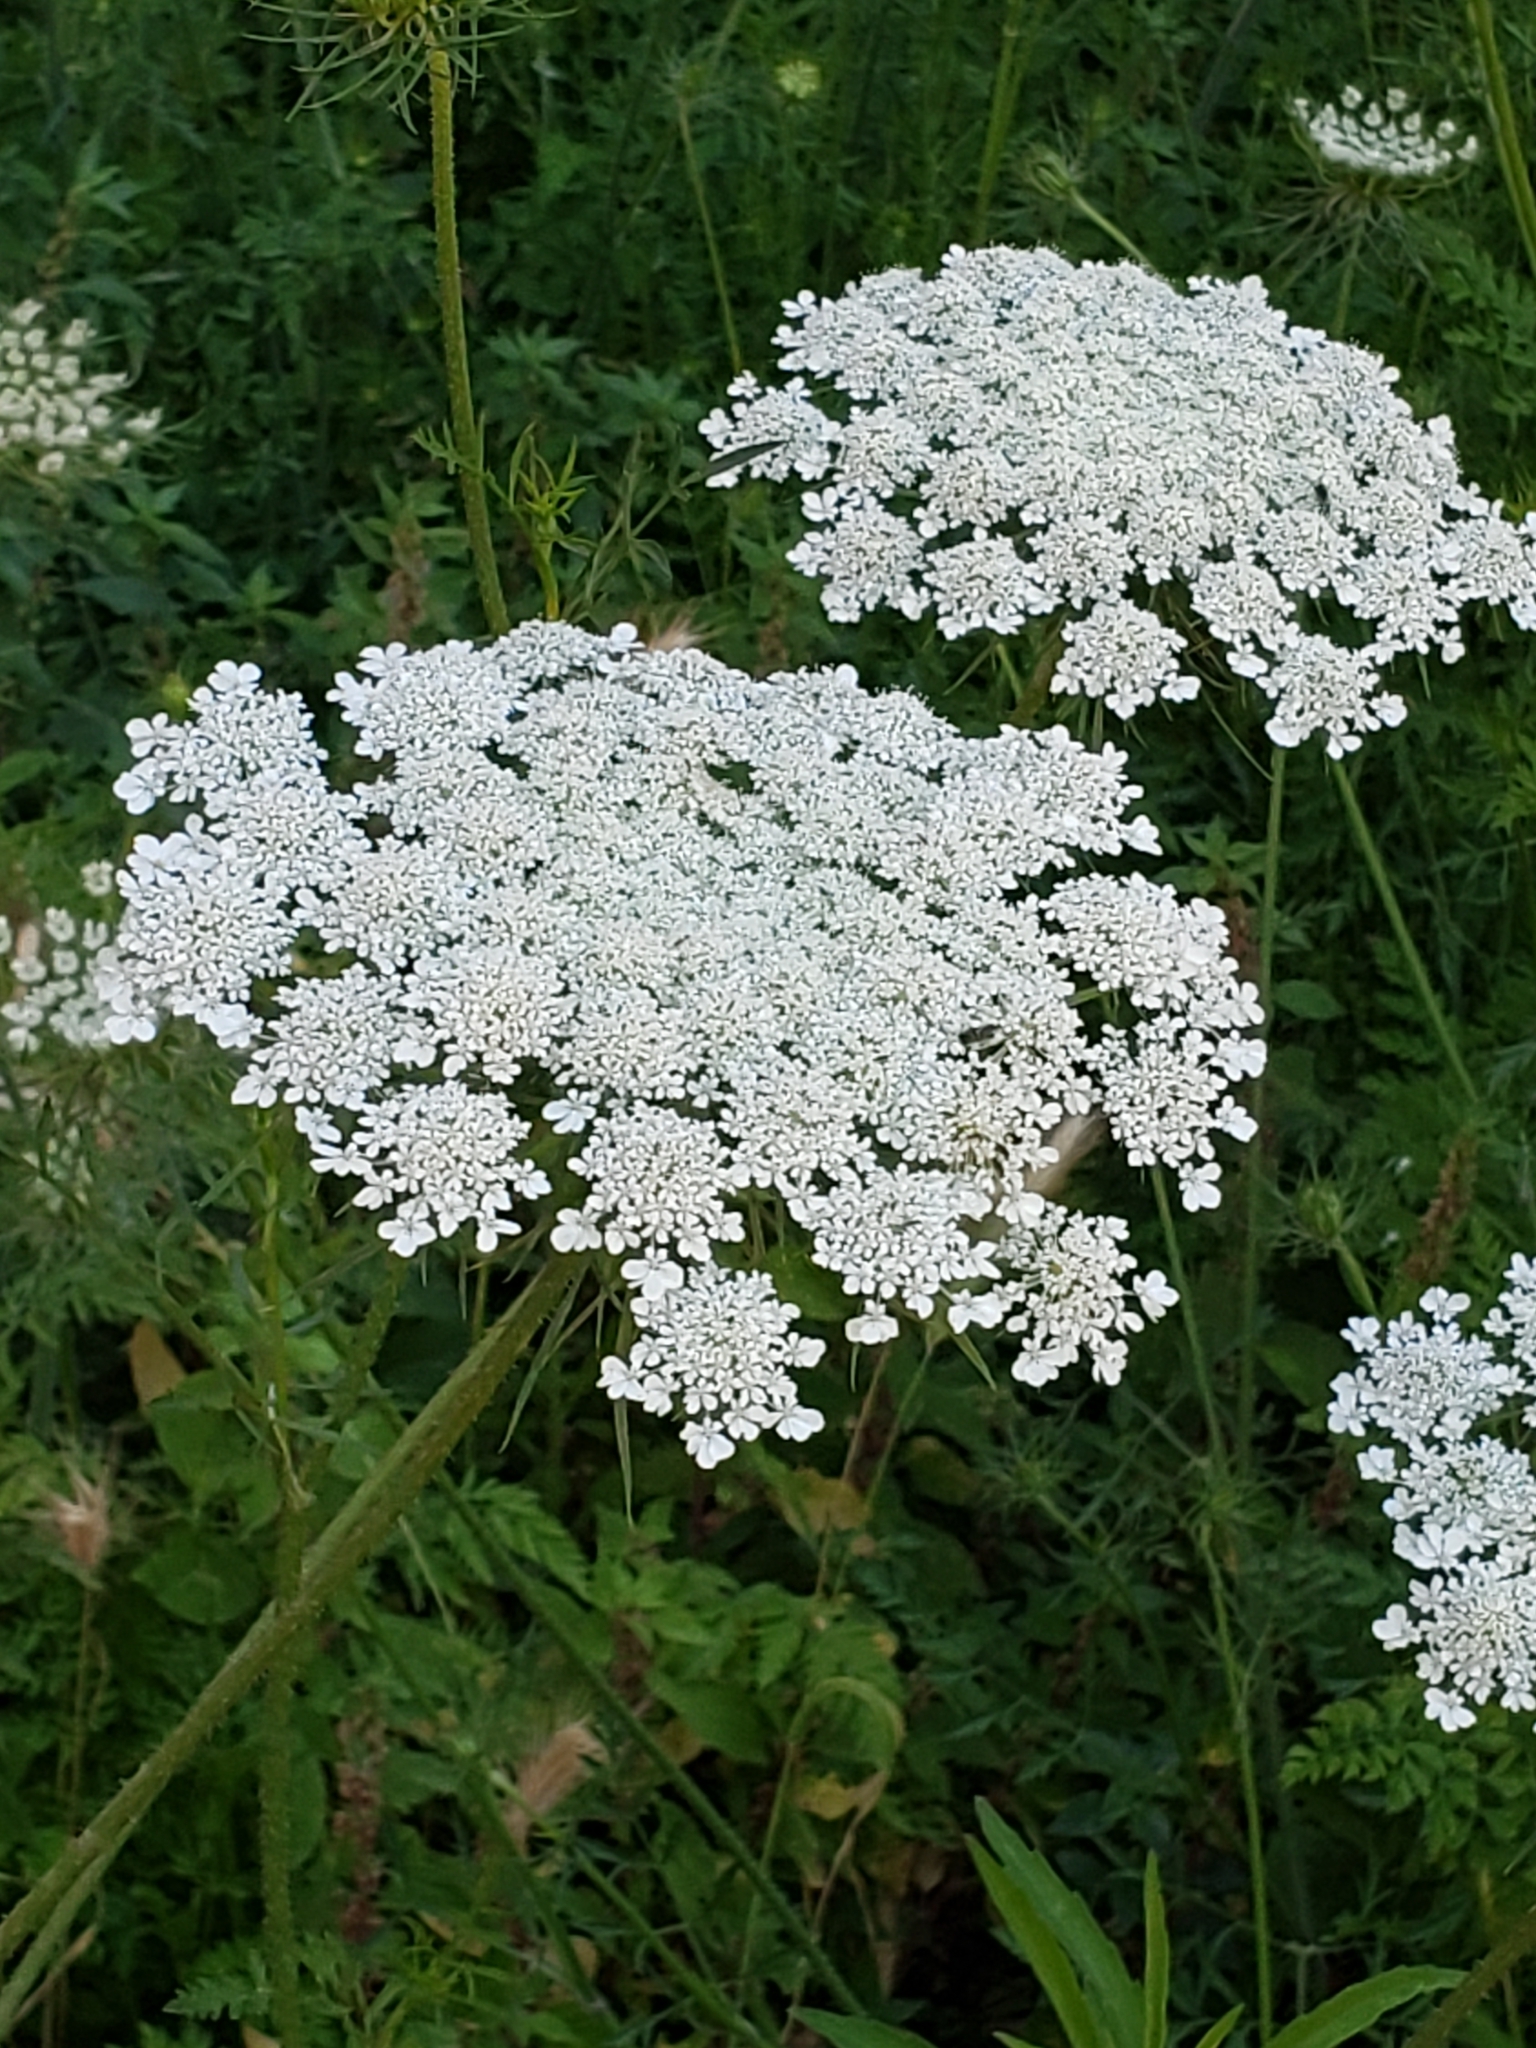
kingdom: Plantae
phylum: Tracheophyta
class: Magnoliopsida
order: Apiales
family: Apiaceae
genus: Daucus
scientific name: Daucus carota
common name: Wild carrot
